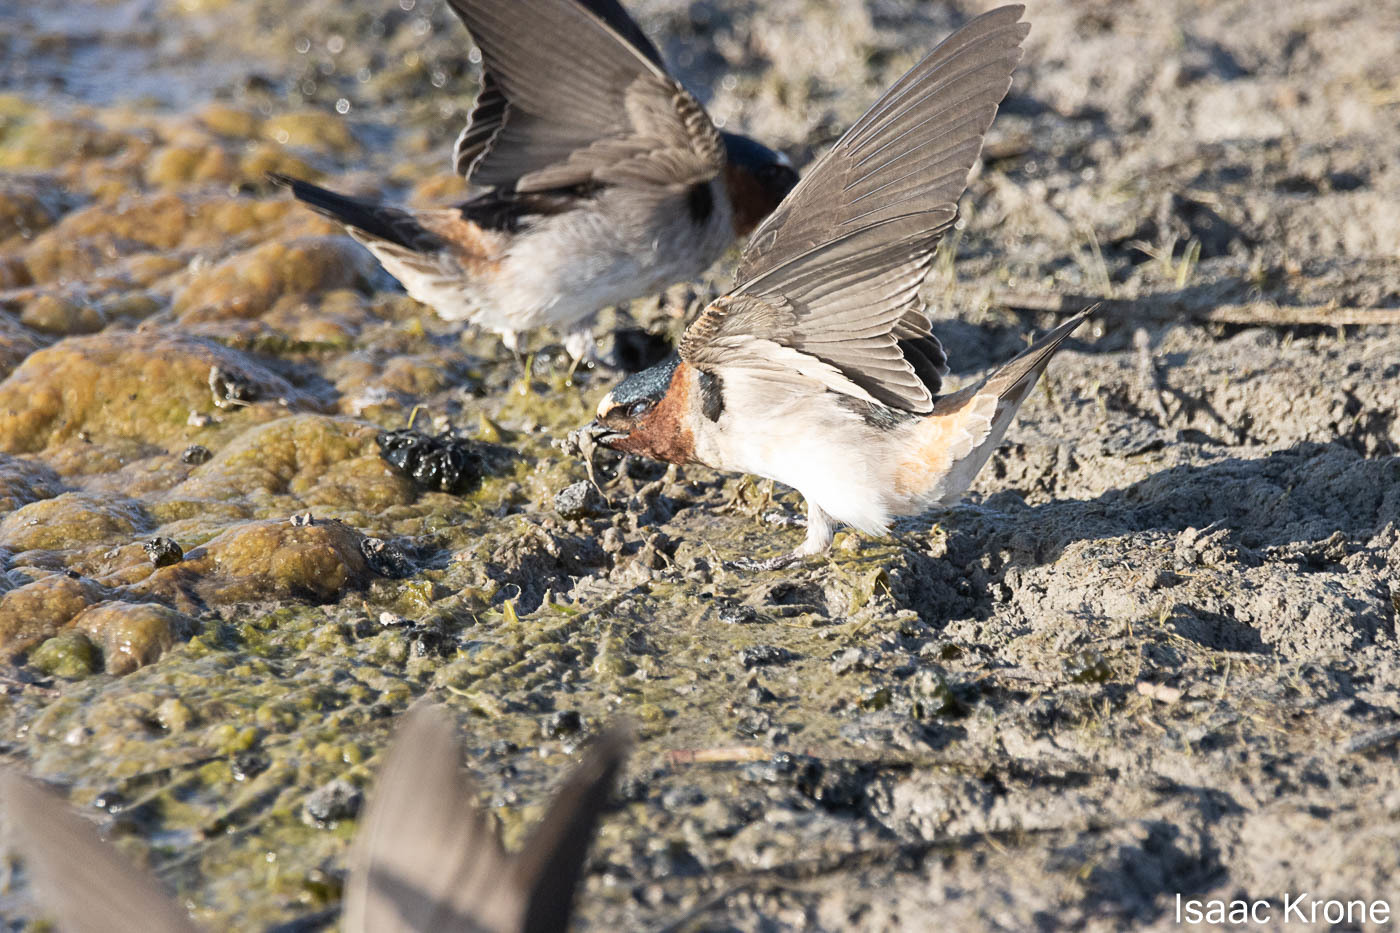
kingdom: Animalia
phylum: Chordata
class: Aves
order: Passeriformes
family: Hirundinidae
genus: Petrochelidon
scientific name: Petrochelidon pyrrhonota
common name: American cliff swallow
